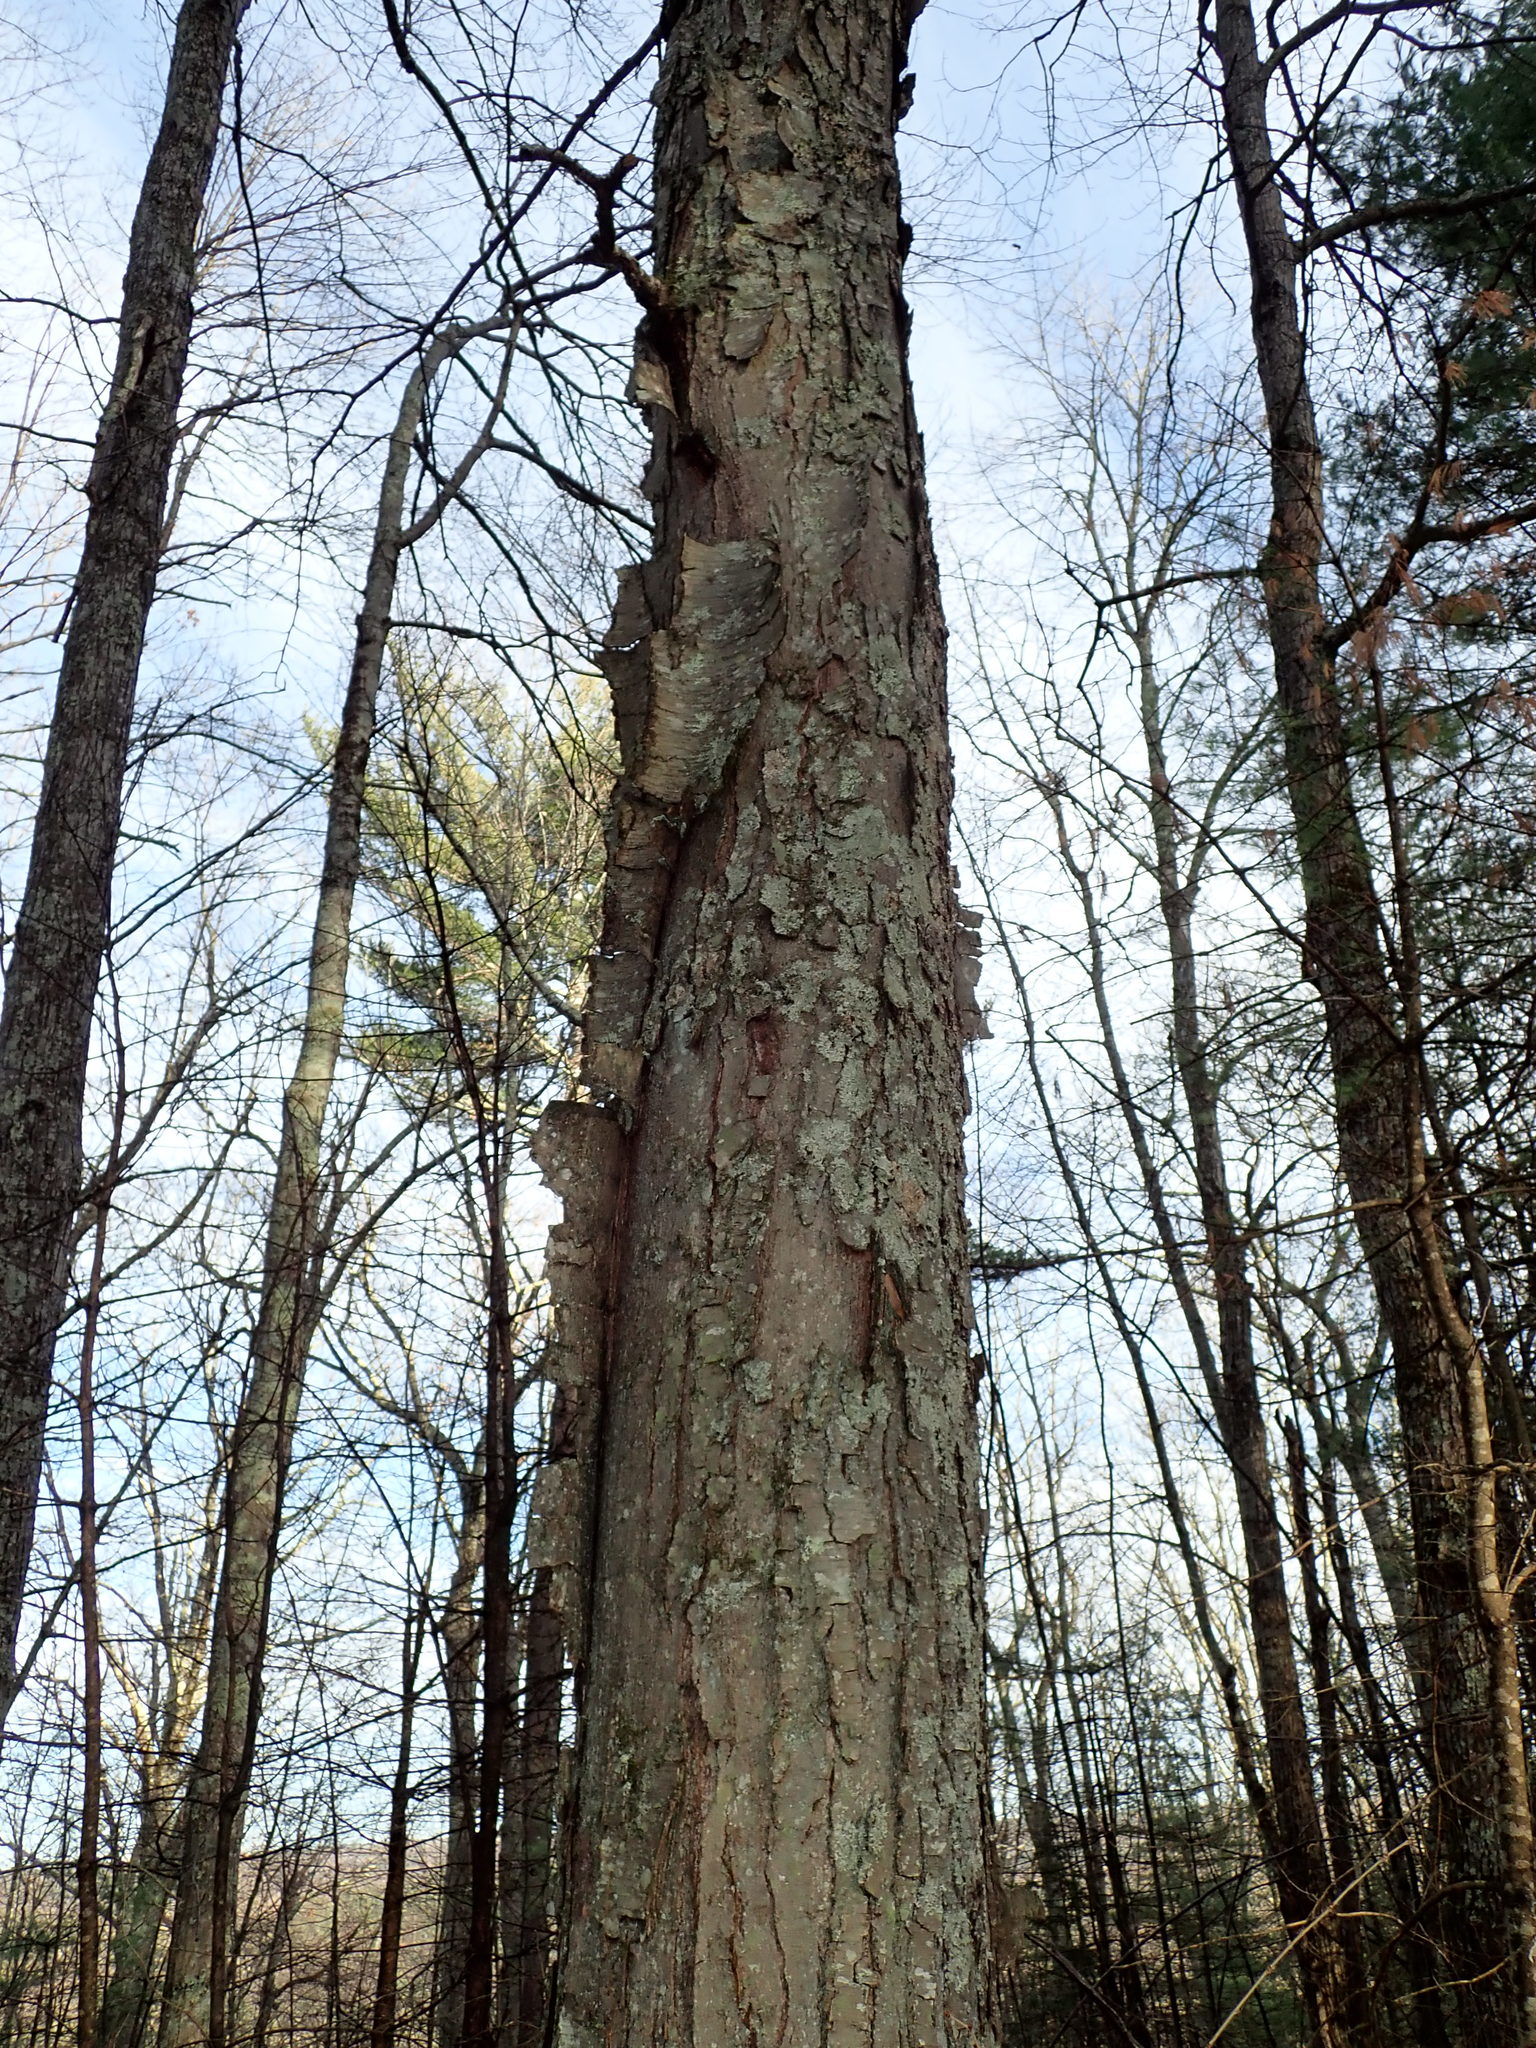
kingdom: Plantae
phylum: Tracheophyta
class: Magnoliopsida
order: Fagales
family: Betulaceae
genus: Betula
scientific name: Betula lenta
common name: Black birch
